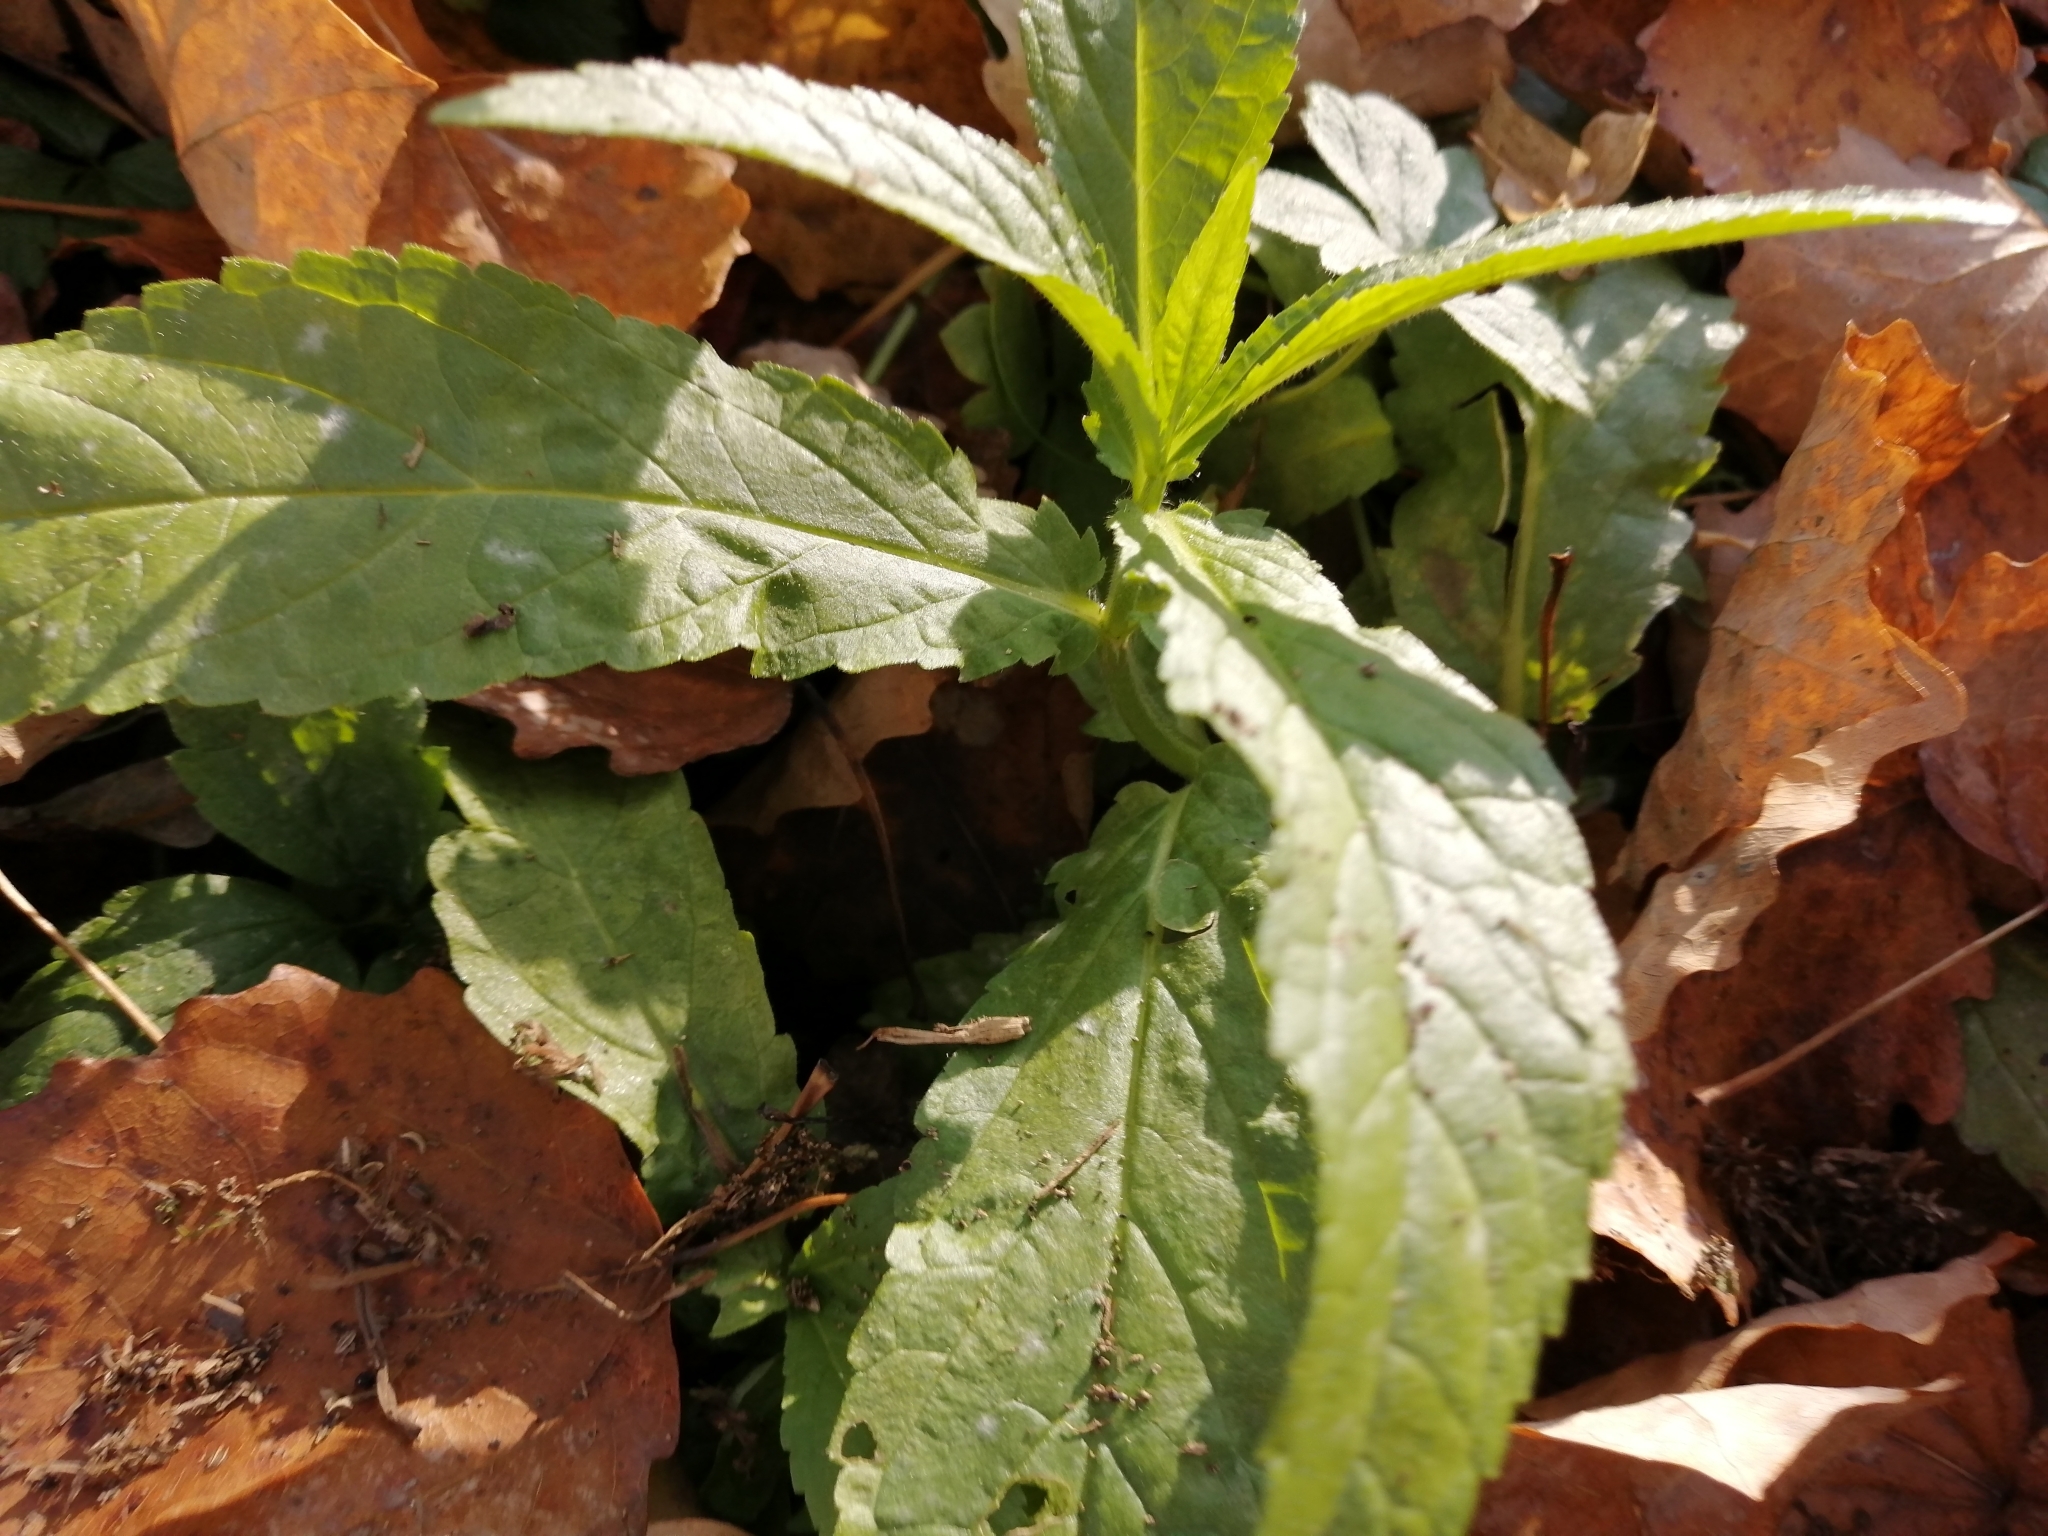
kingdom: Plantae
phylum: Tracheophyta
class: Magnoliopsida
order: Lamiales
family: Lamiaceae
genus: Stachys
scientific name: Stachys palustris
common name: Marsh woundwort
